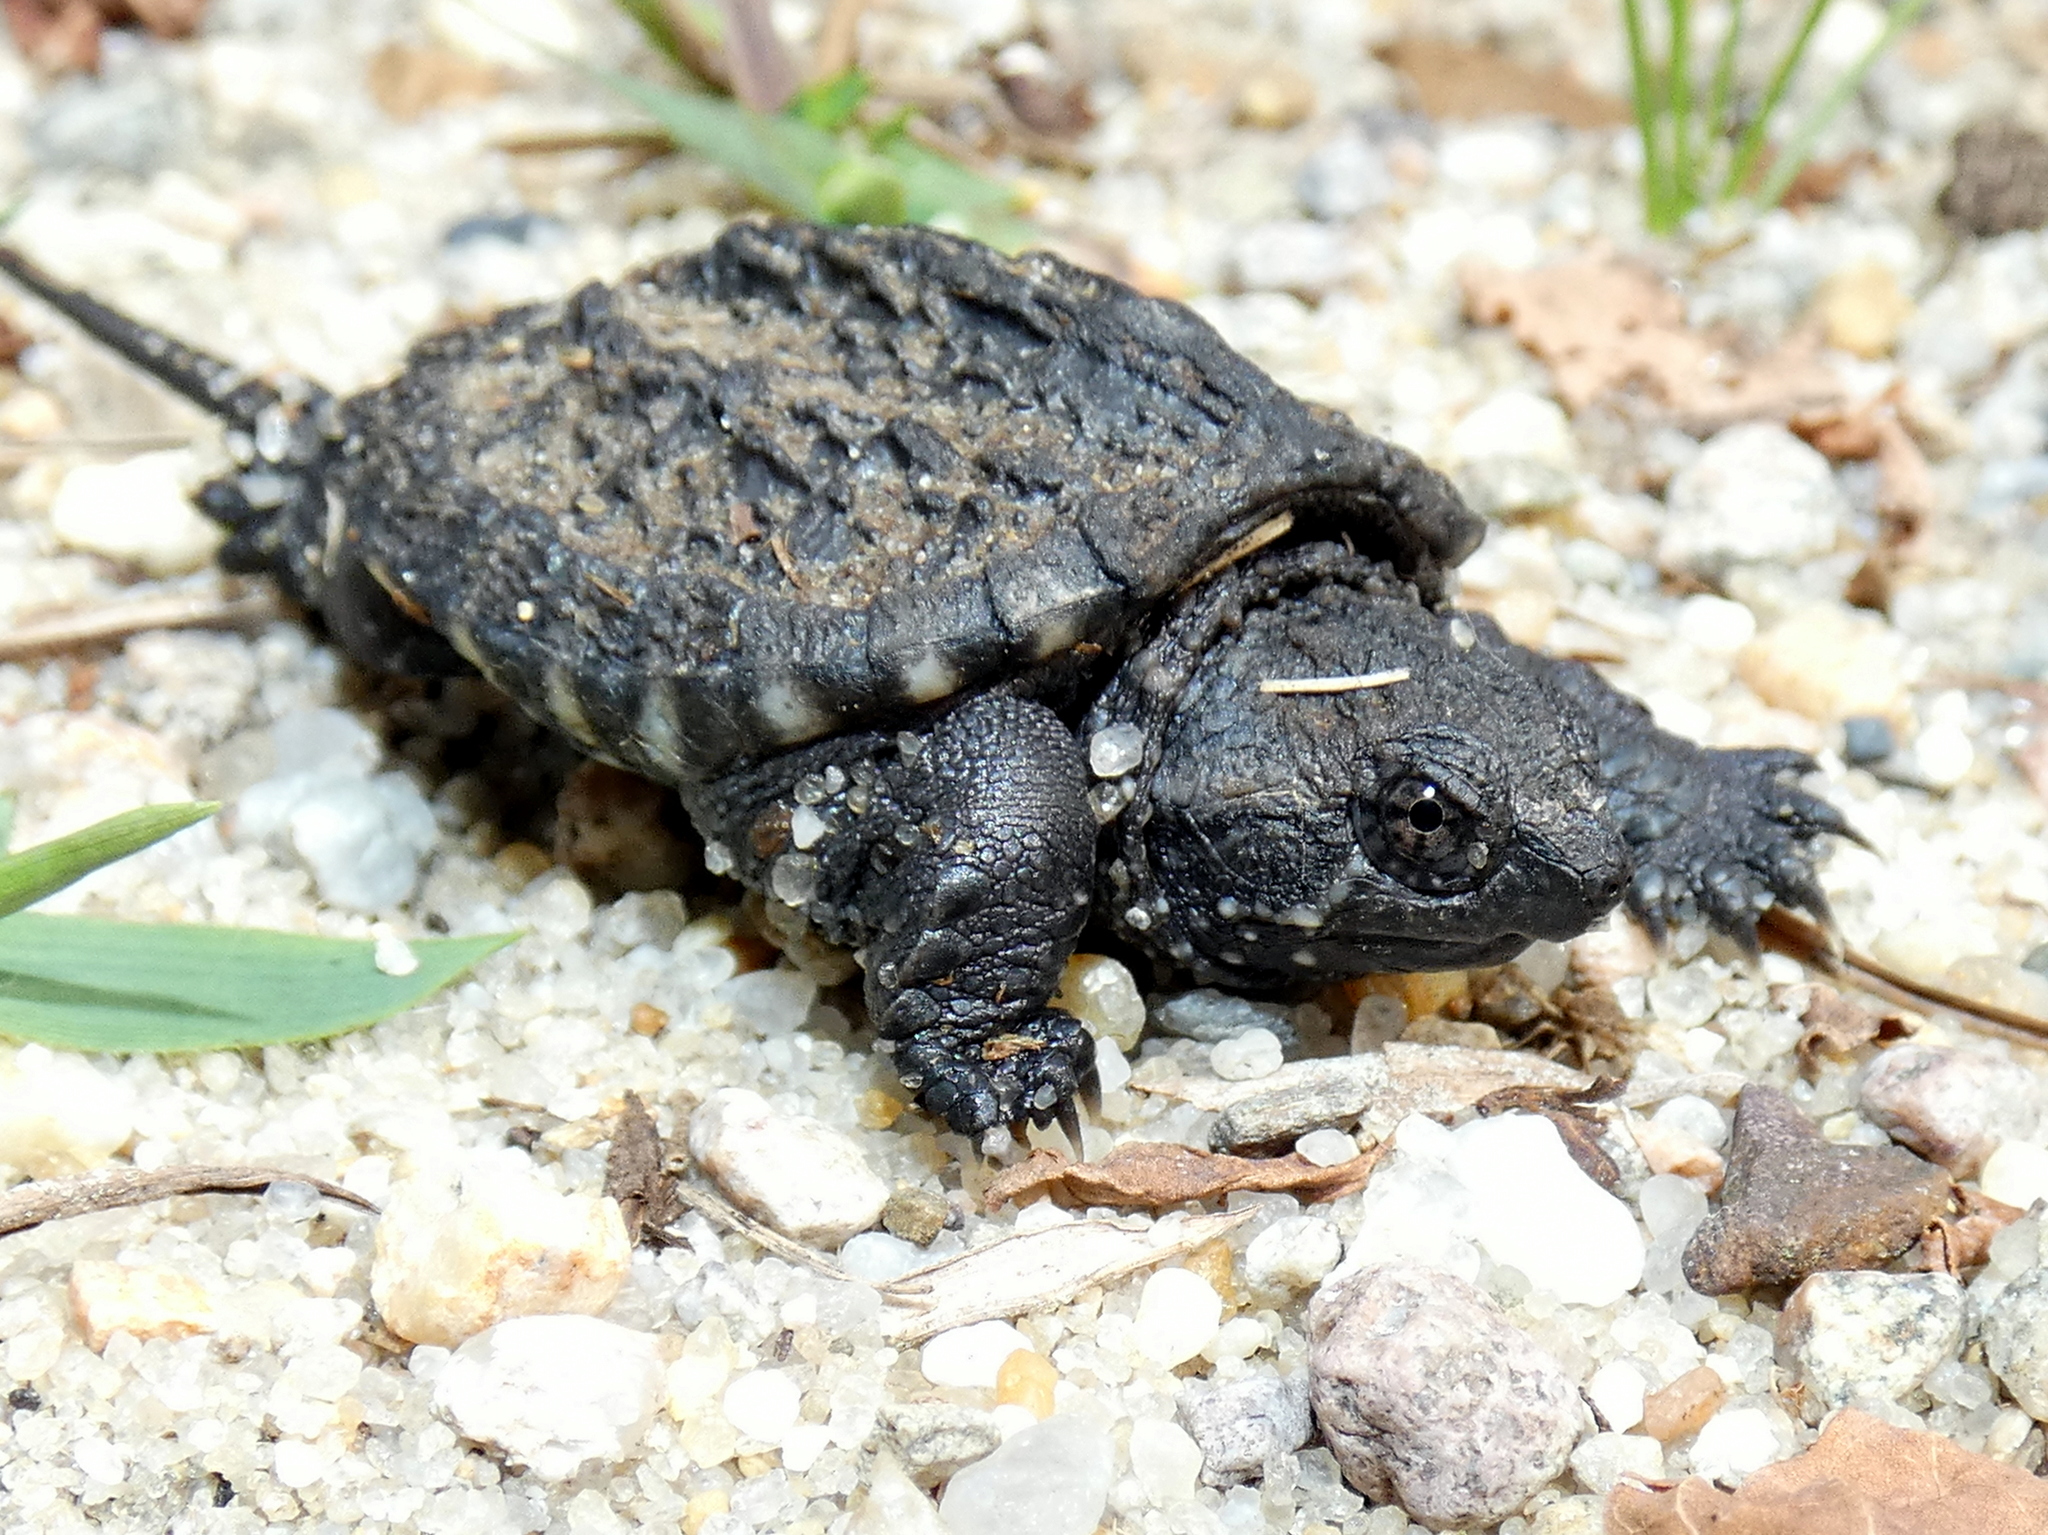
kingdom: Animalia
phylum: Chordata
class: Testudines
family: Chelydridae
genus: Chelydra
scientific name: Chelydra serpentina
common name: Common snapping turtle
